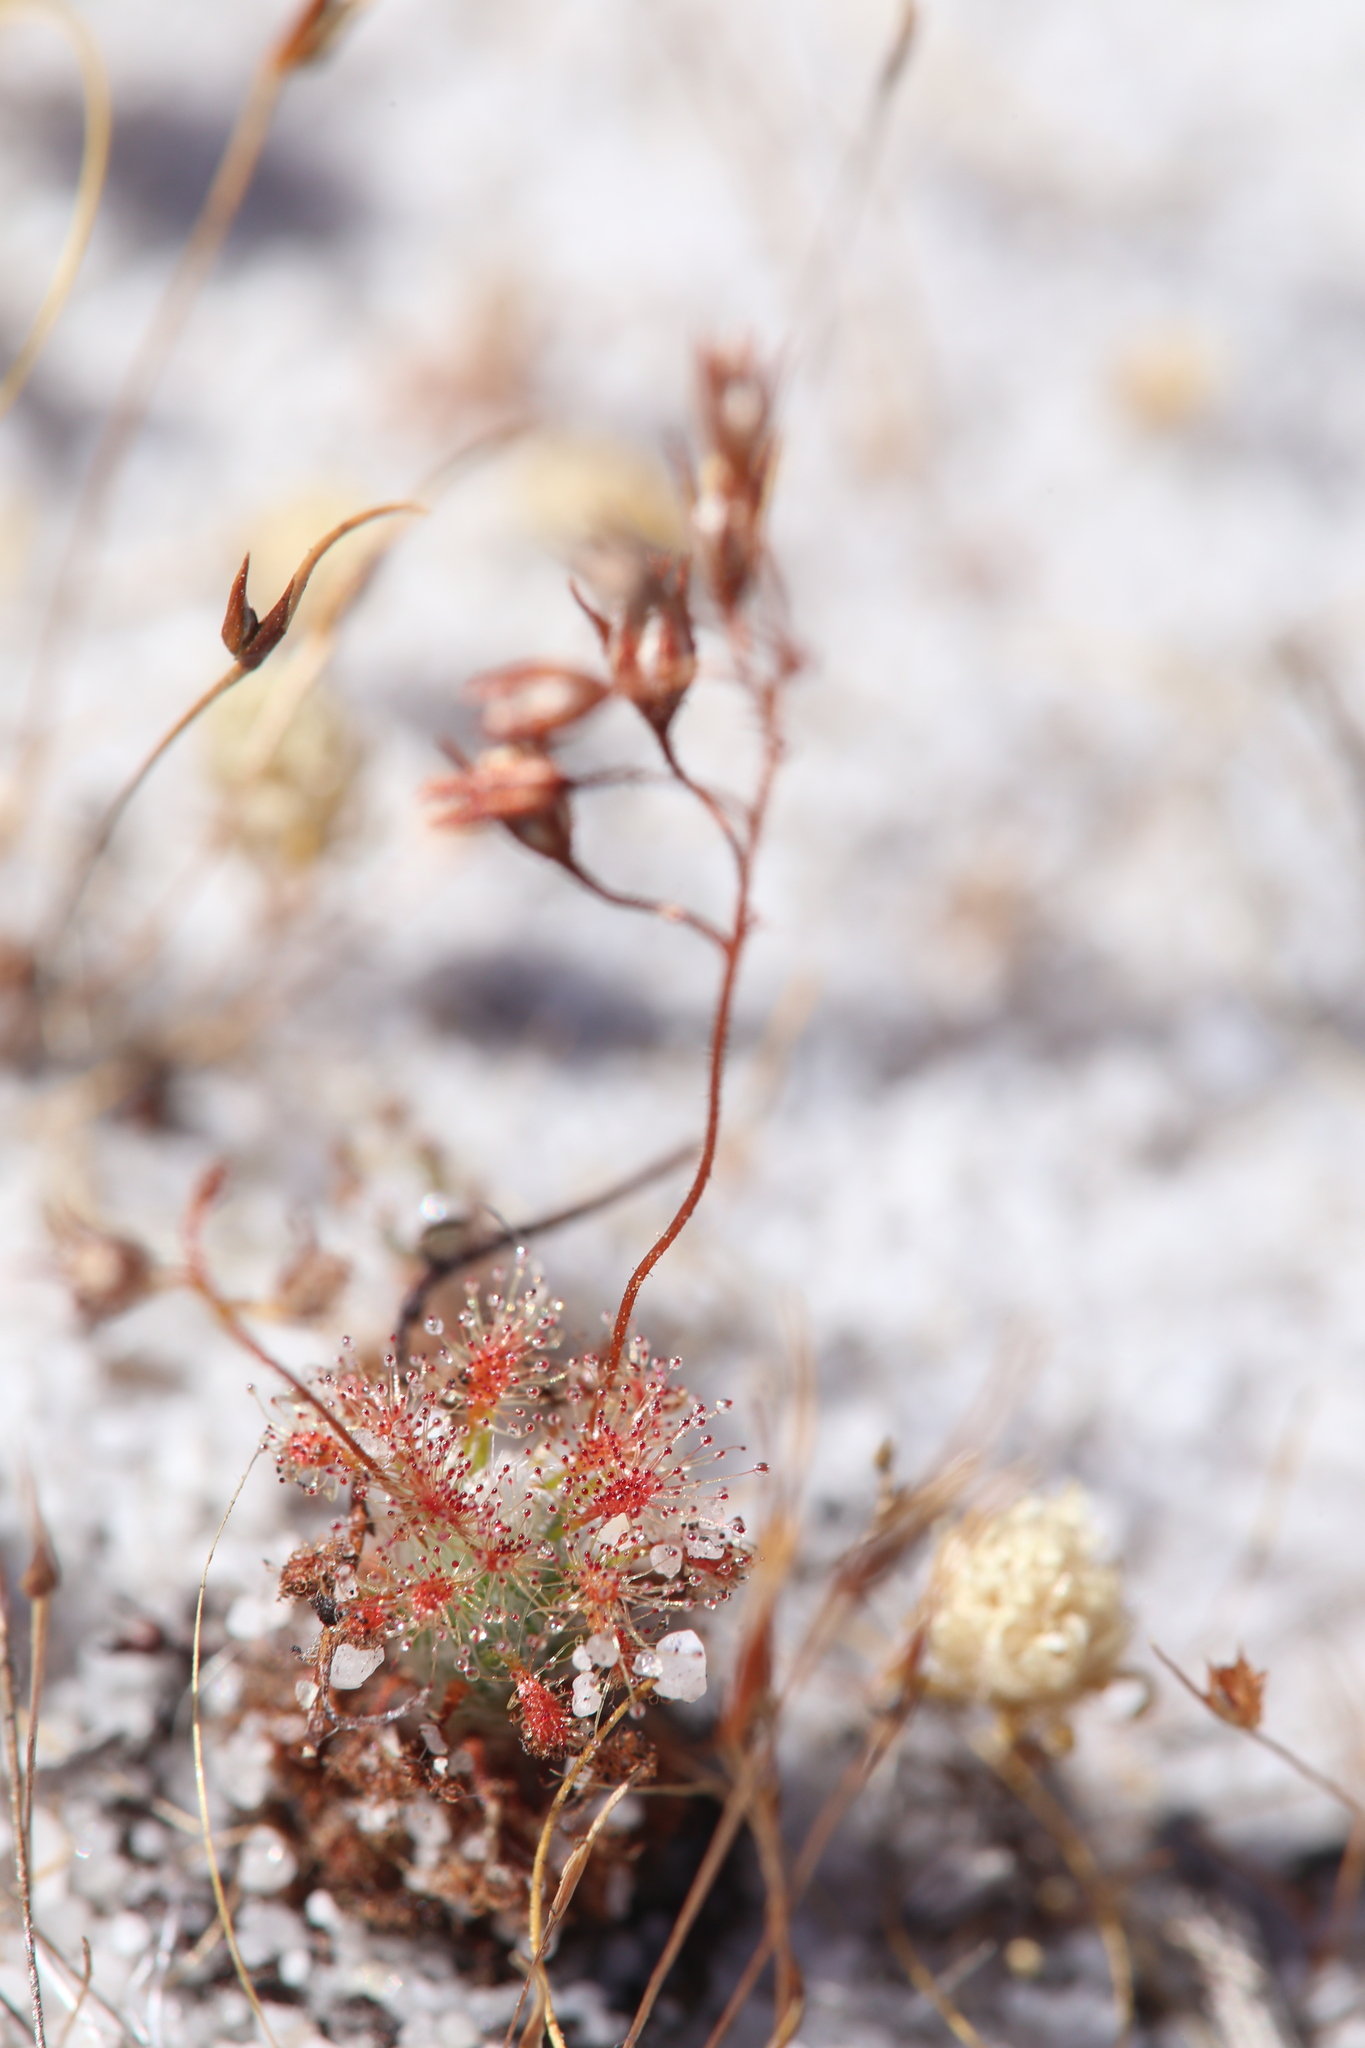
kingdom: Plantae
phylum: Tracheophyta
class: Magnoliopsida
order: Caryophyllales
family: Droseraceae
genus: Drosera
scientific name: Drosera patens
